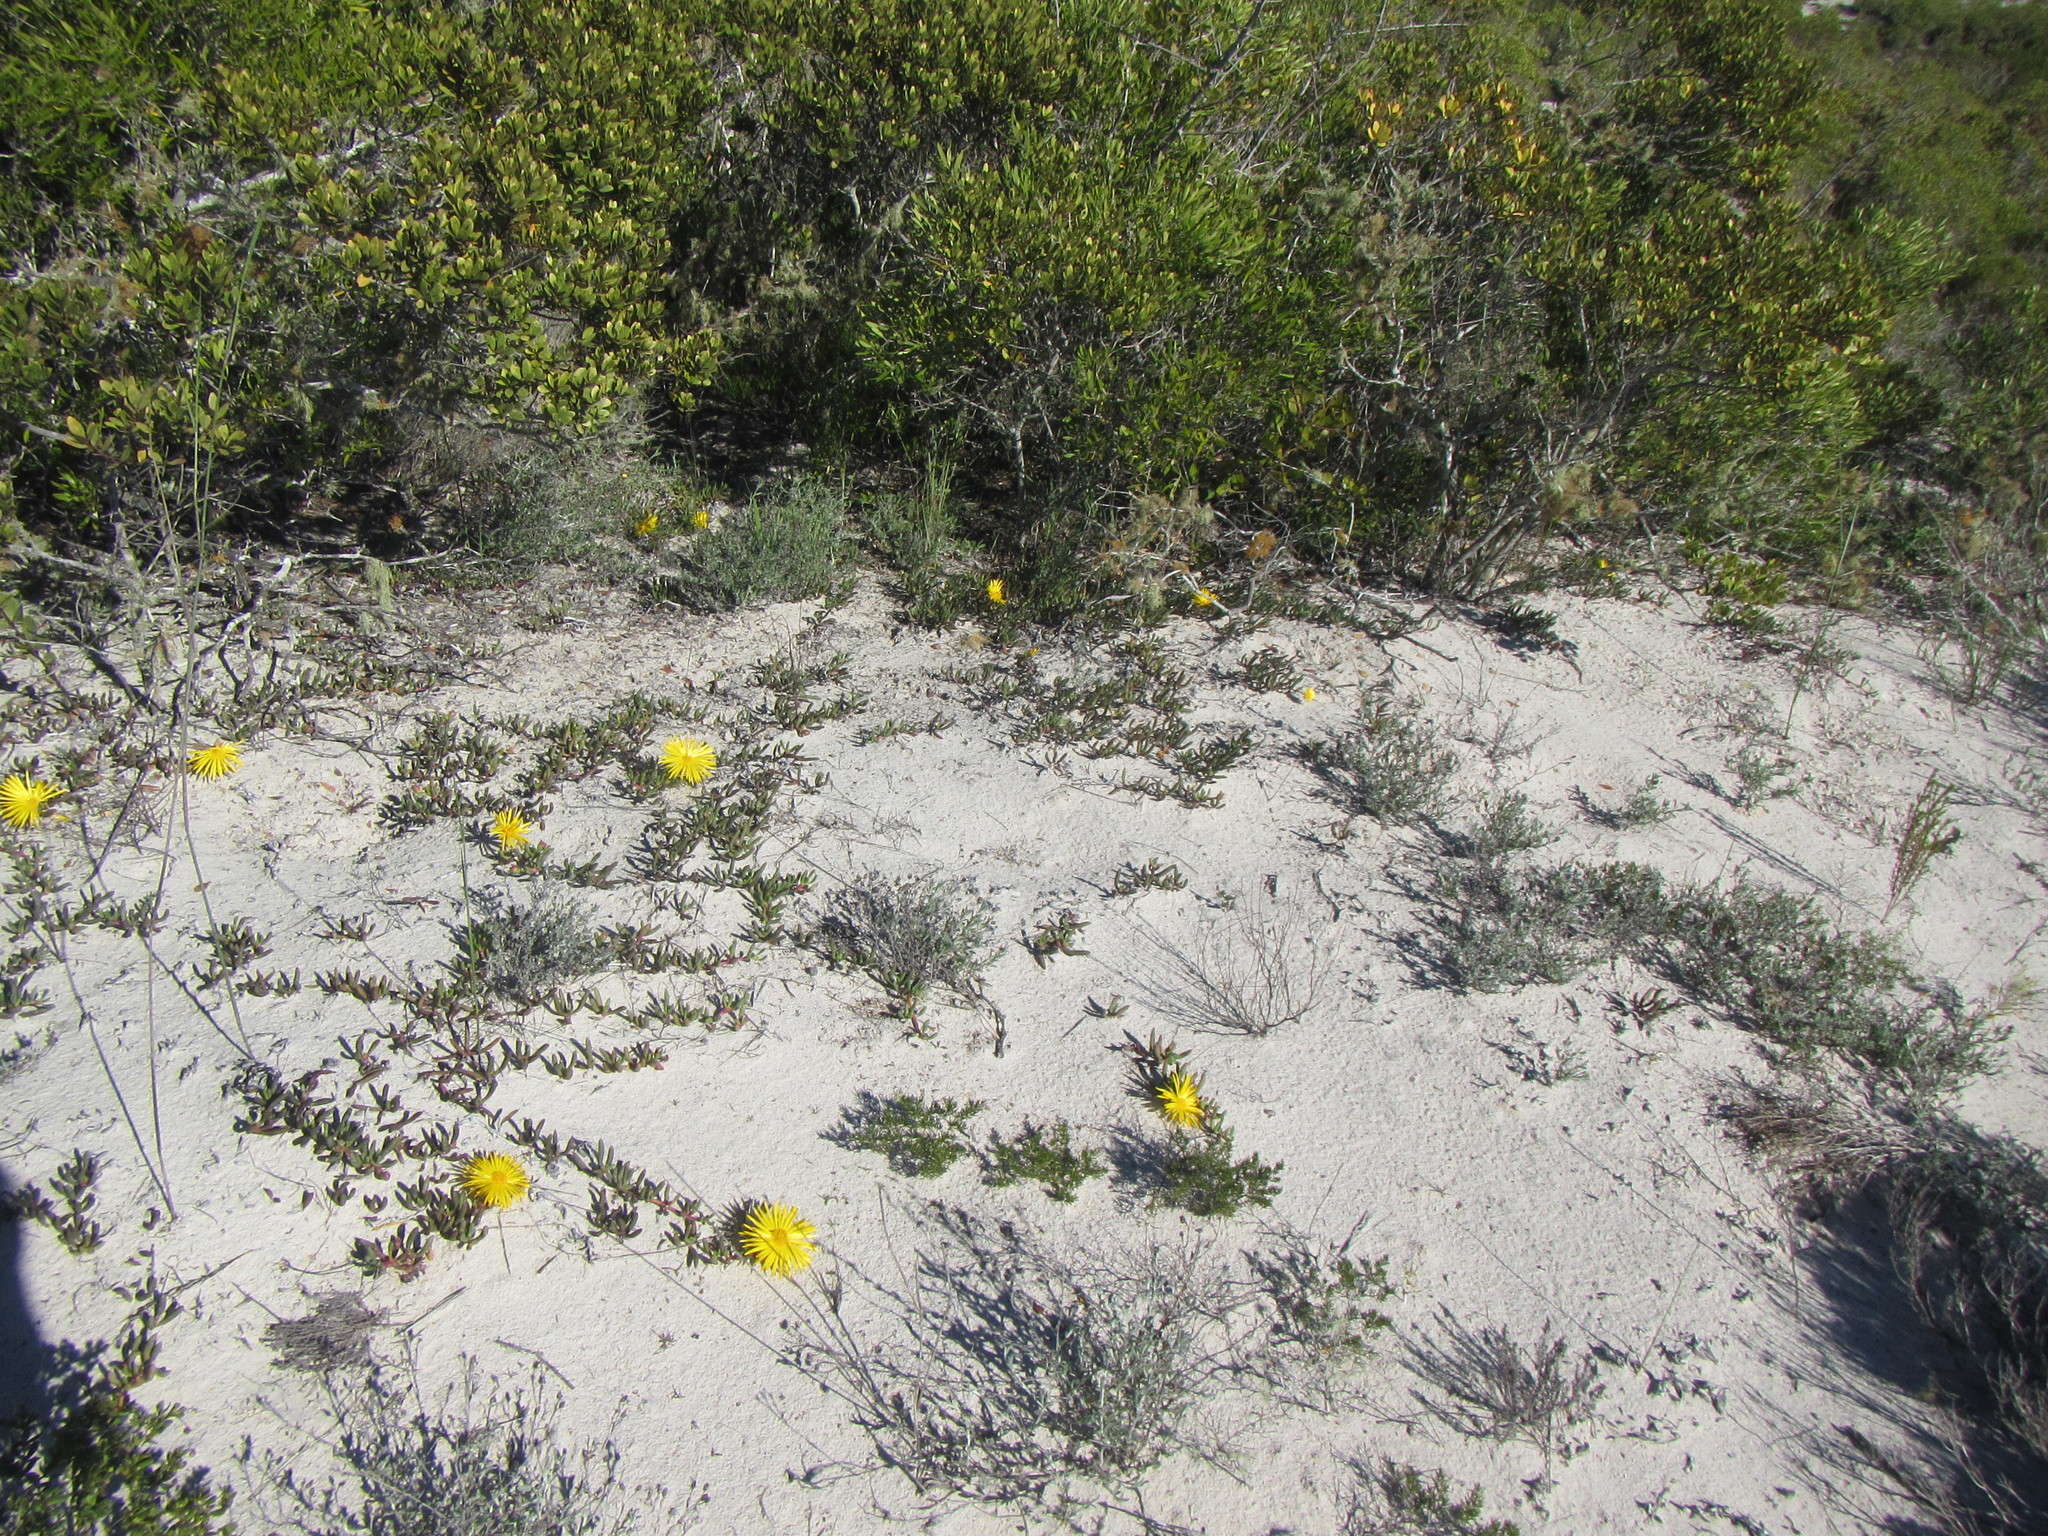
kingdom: Plantae
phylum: Tracheophyta
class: Magnoliopsida
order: Caryophyllales
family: Aizoaceae
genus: Jordaaniella
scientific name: Jordaaniella dubia
